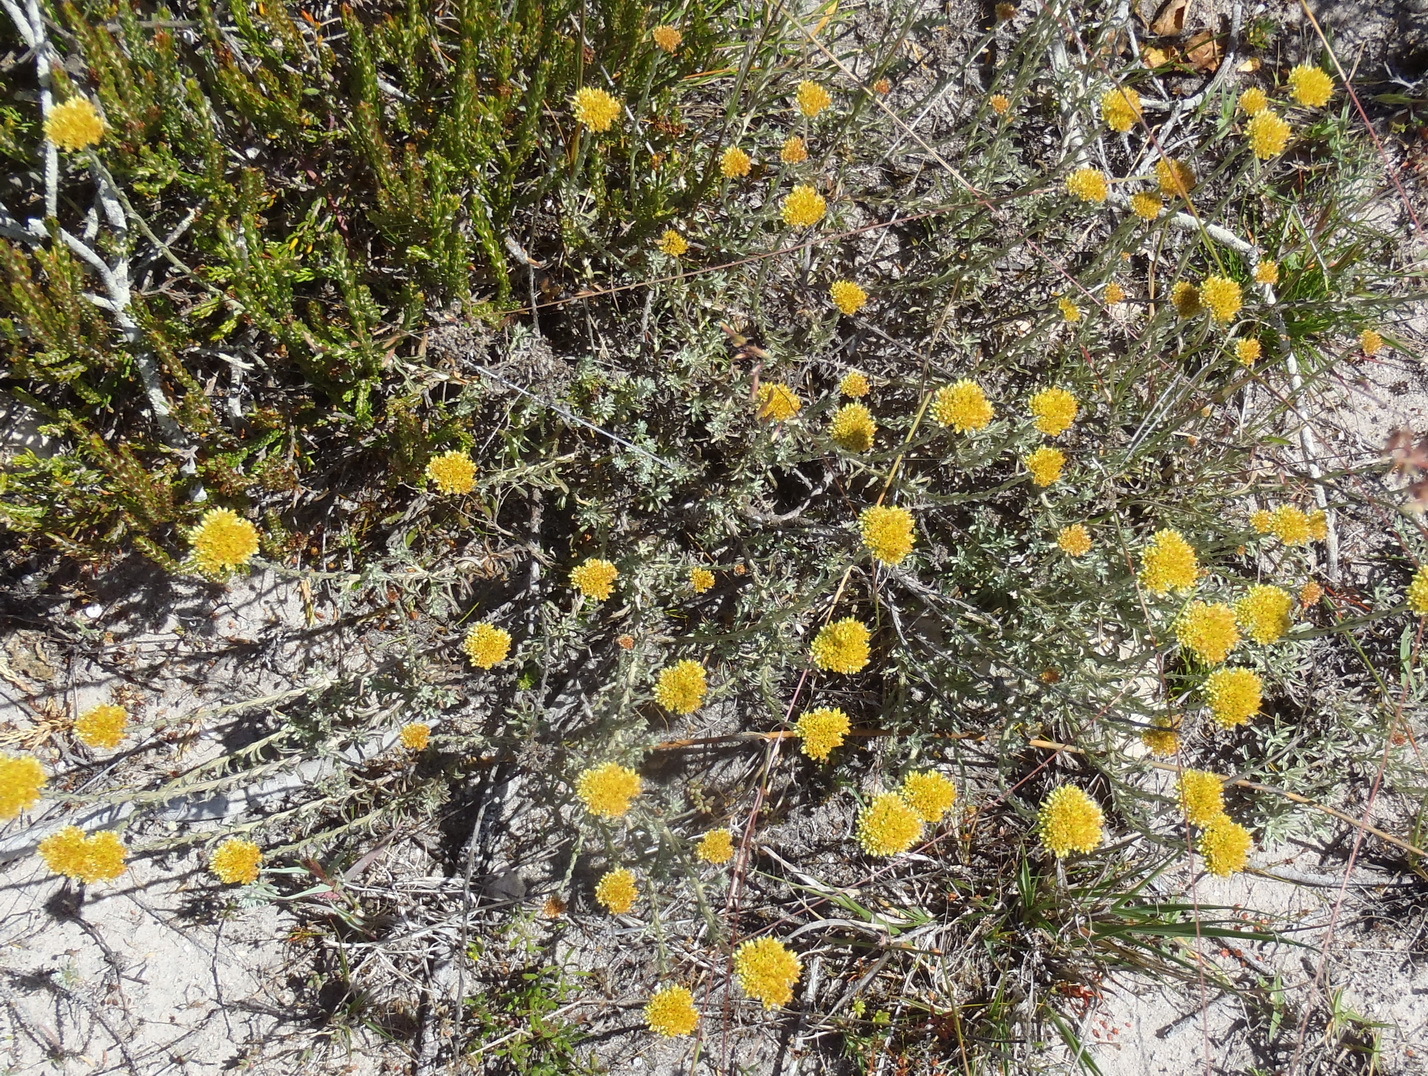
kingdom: Plantae
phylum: Tracheophyta
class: Magnoliopsida
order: Asterales
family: Asteraceae
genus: Helichrysum
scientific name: Helichrysum rutilans
